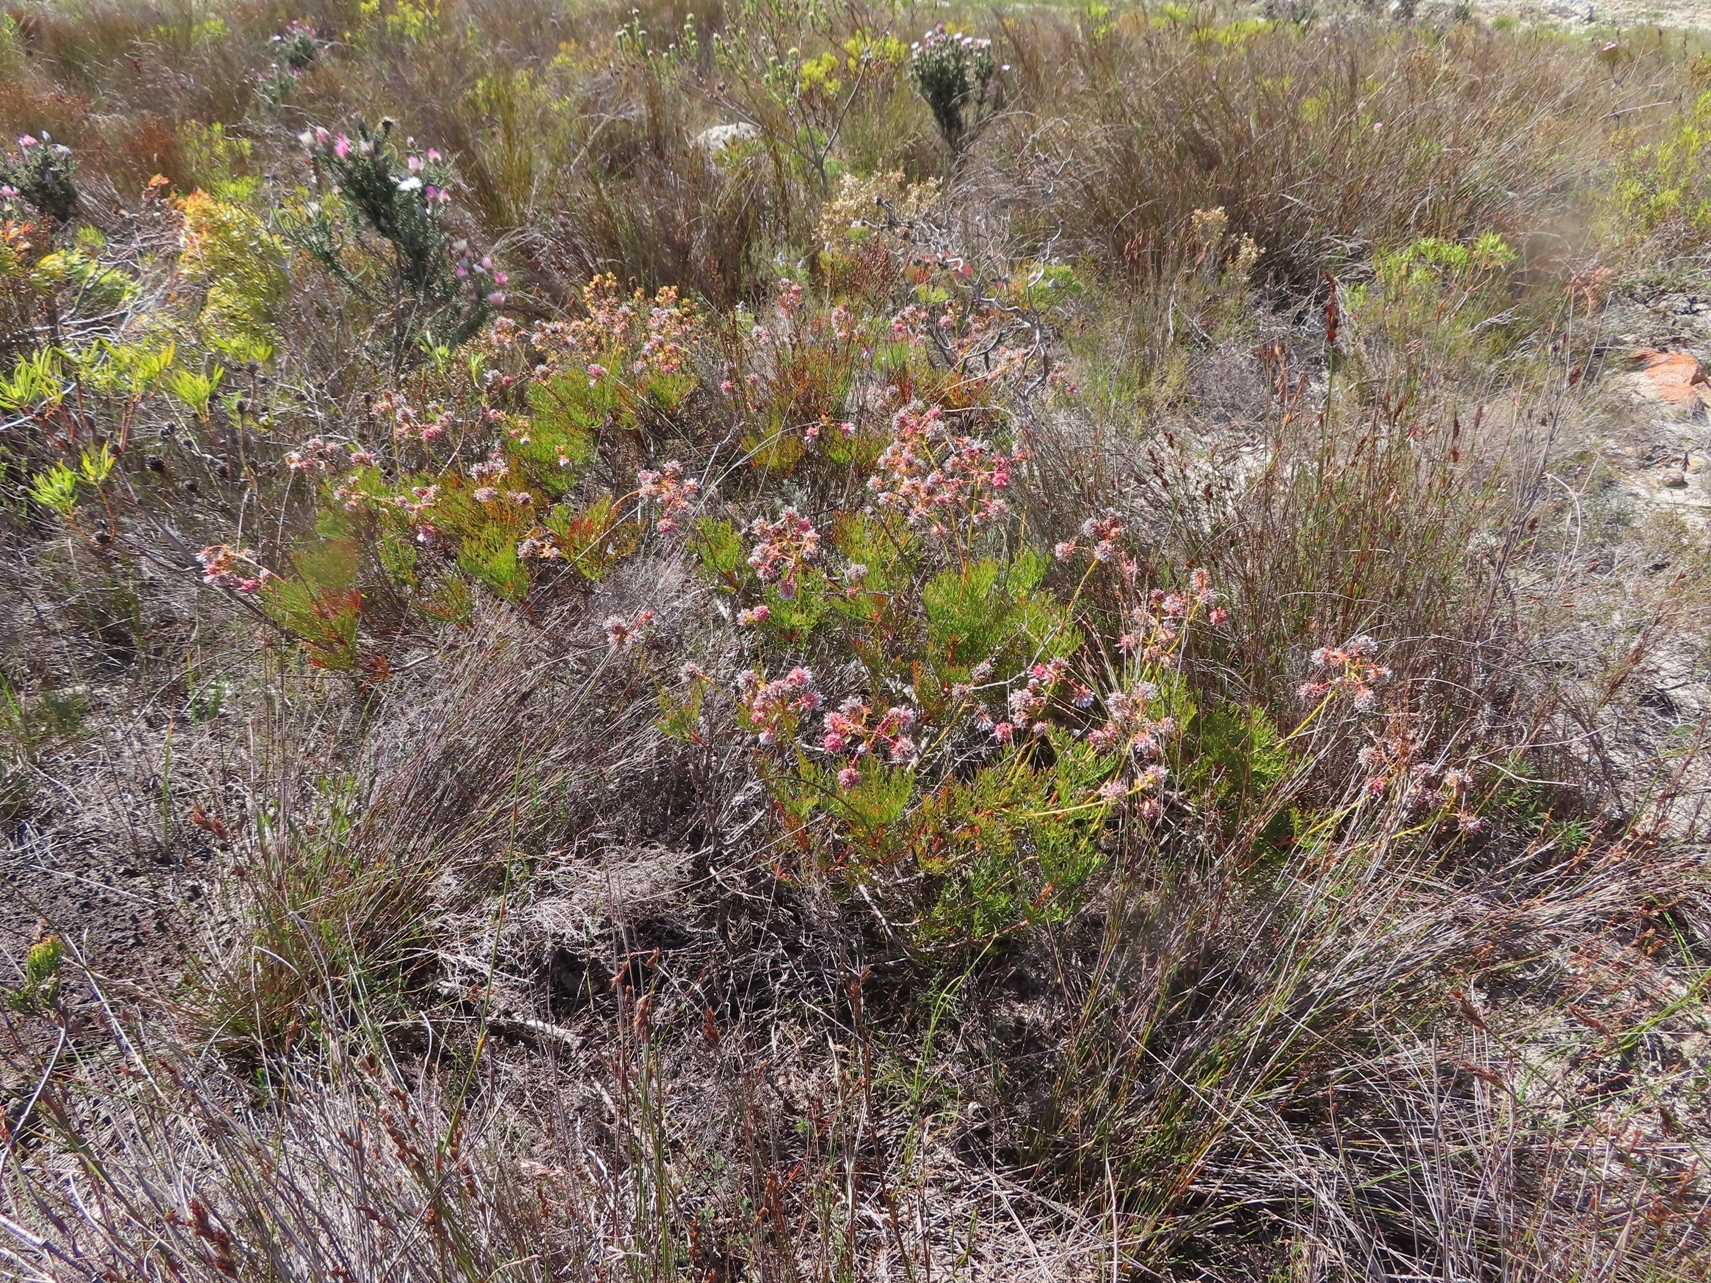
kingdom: Plantae
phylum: Tracheophyta
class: Magnoliopsida
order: Proteales
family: Proteaceae
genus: Serruria
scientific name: Serruria elongata
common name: Long-stalk spiderhead
